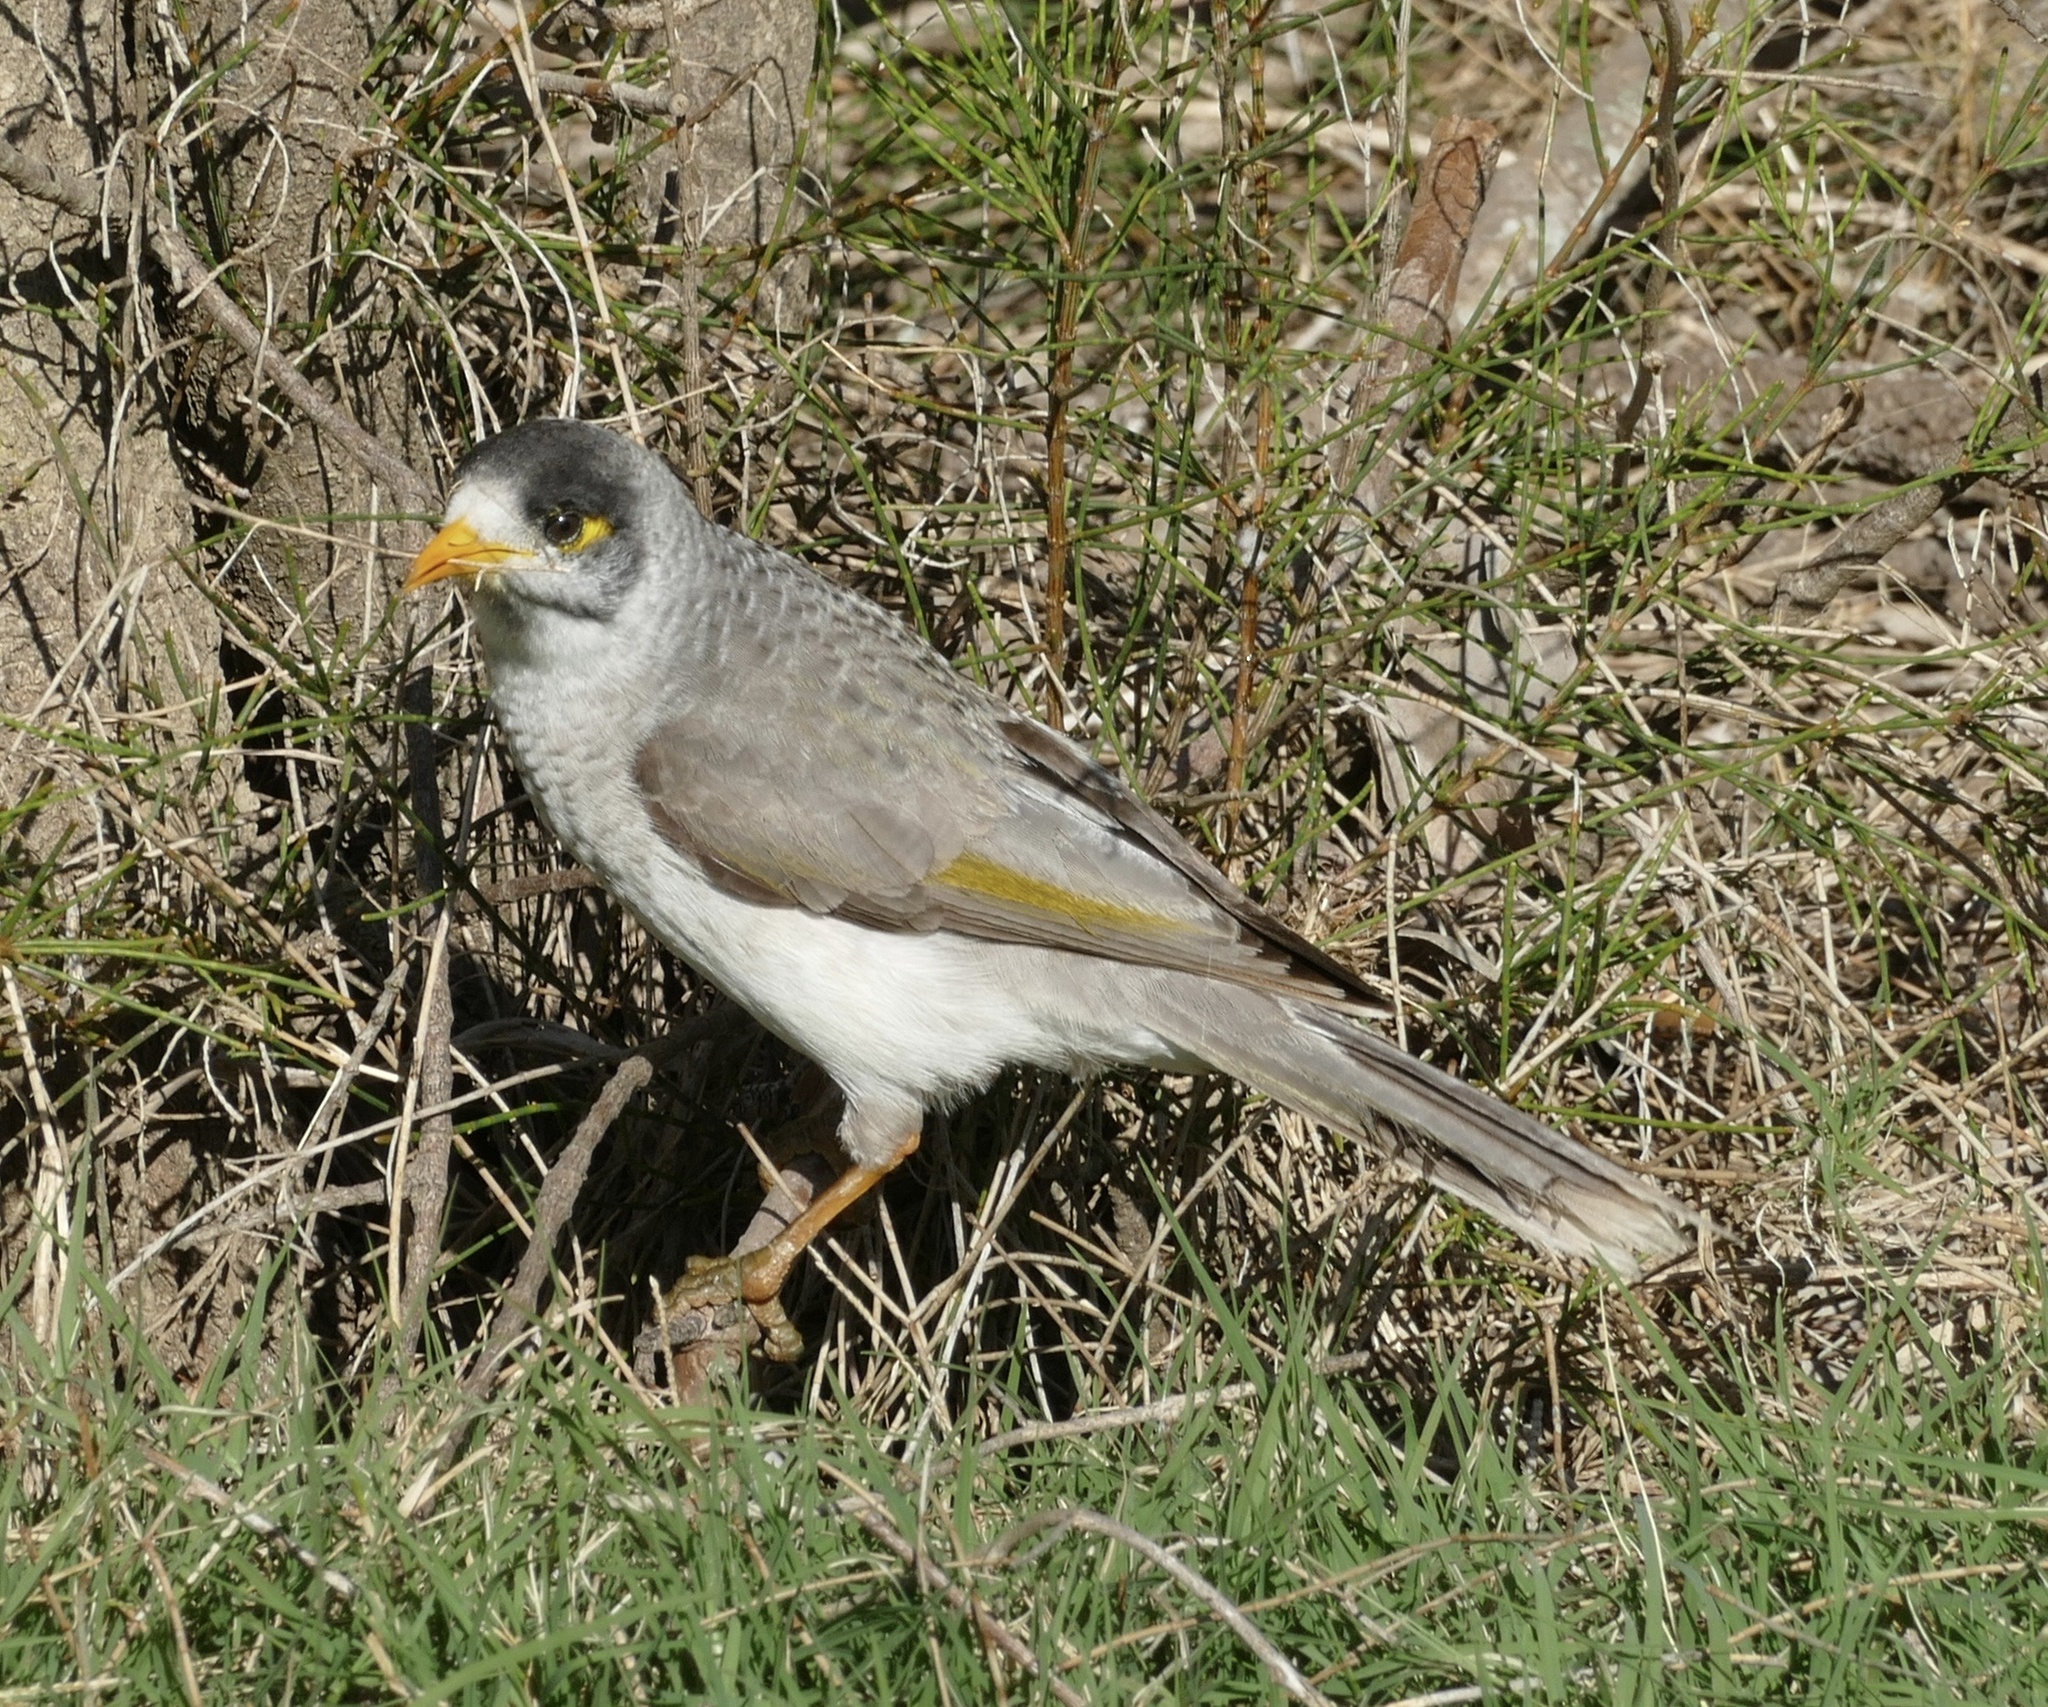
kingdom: Animalia
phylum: Chordata
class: Aves
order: Passeriformes
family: Meliphagidae
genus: Manorina
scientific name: Manorina melanocephala
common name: Noisy miner
